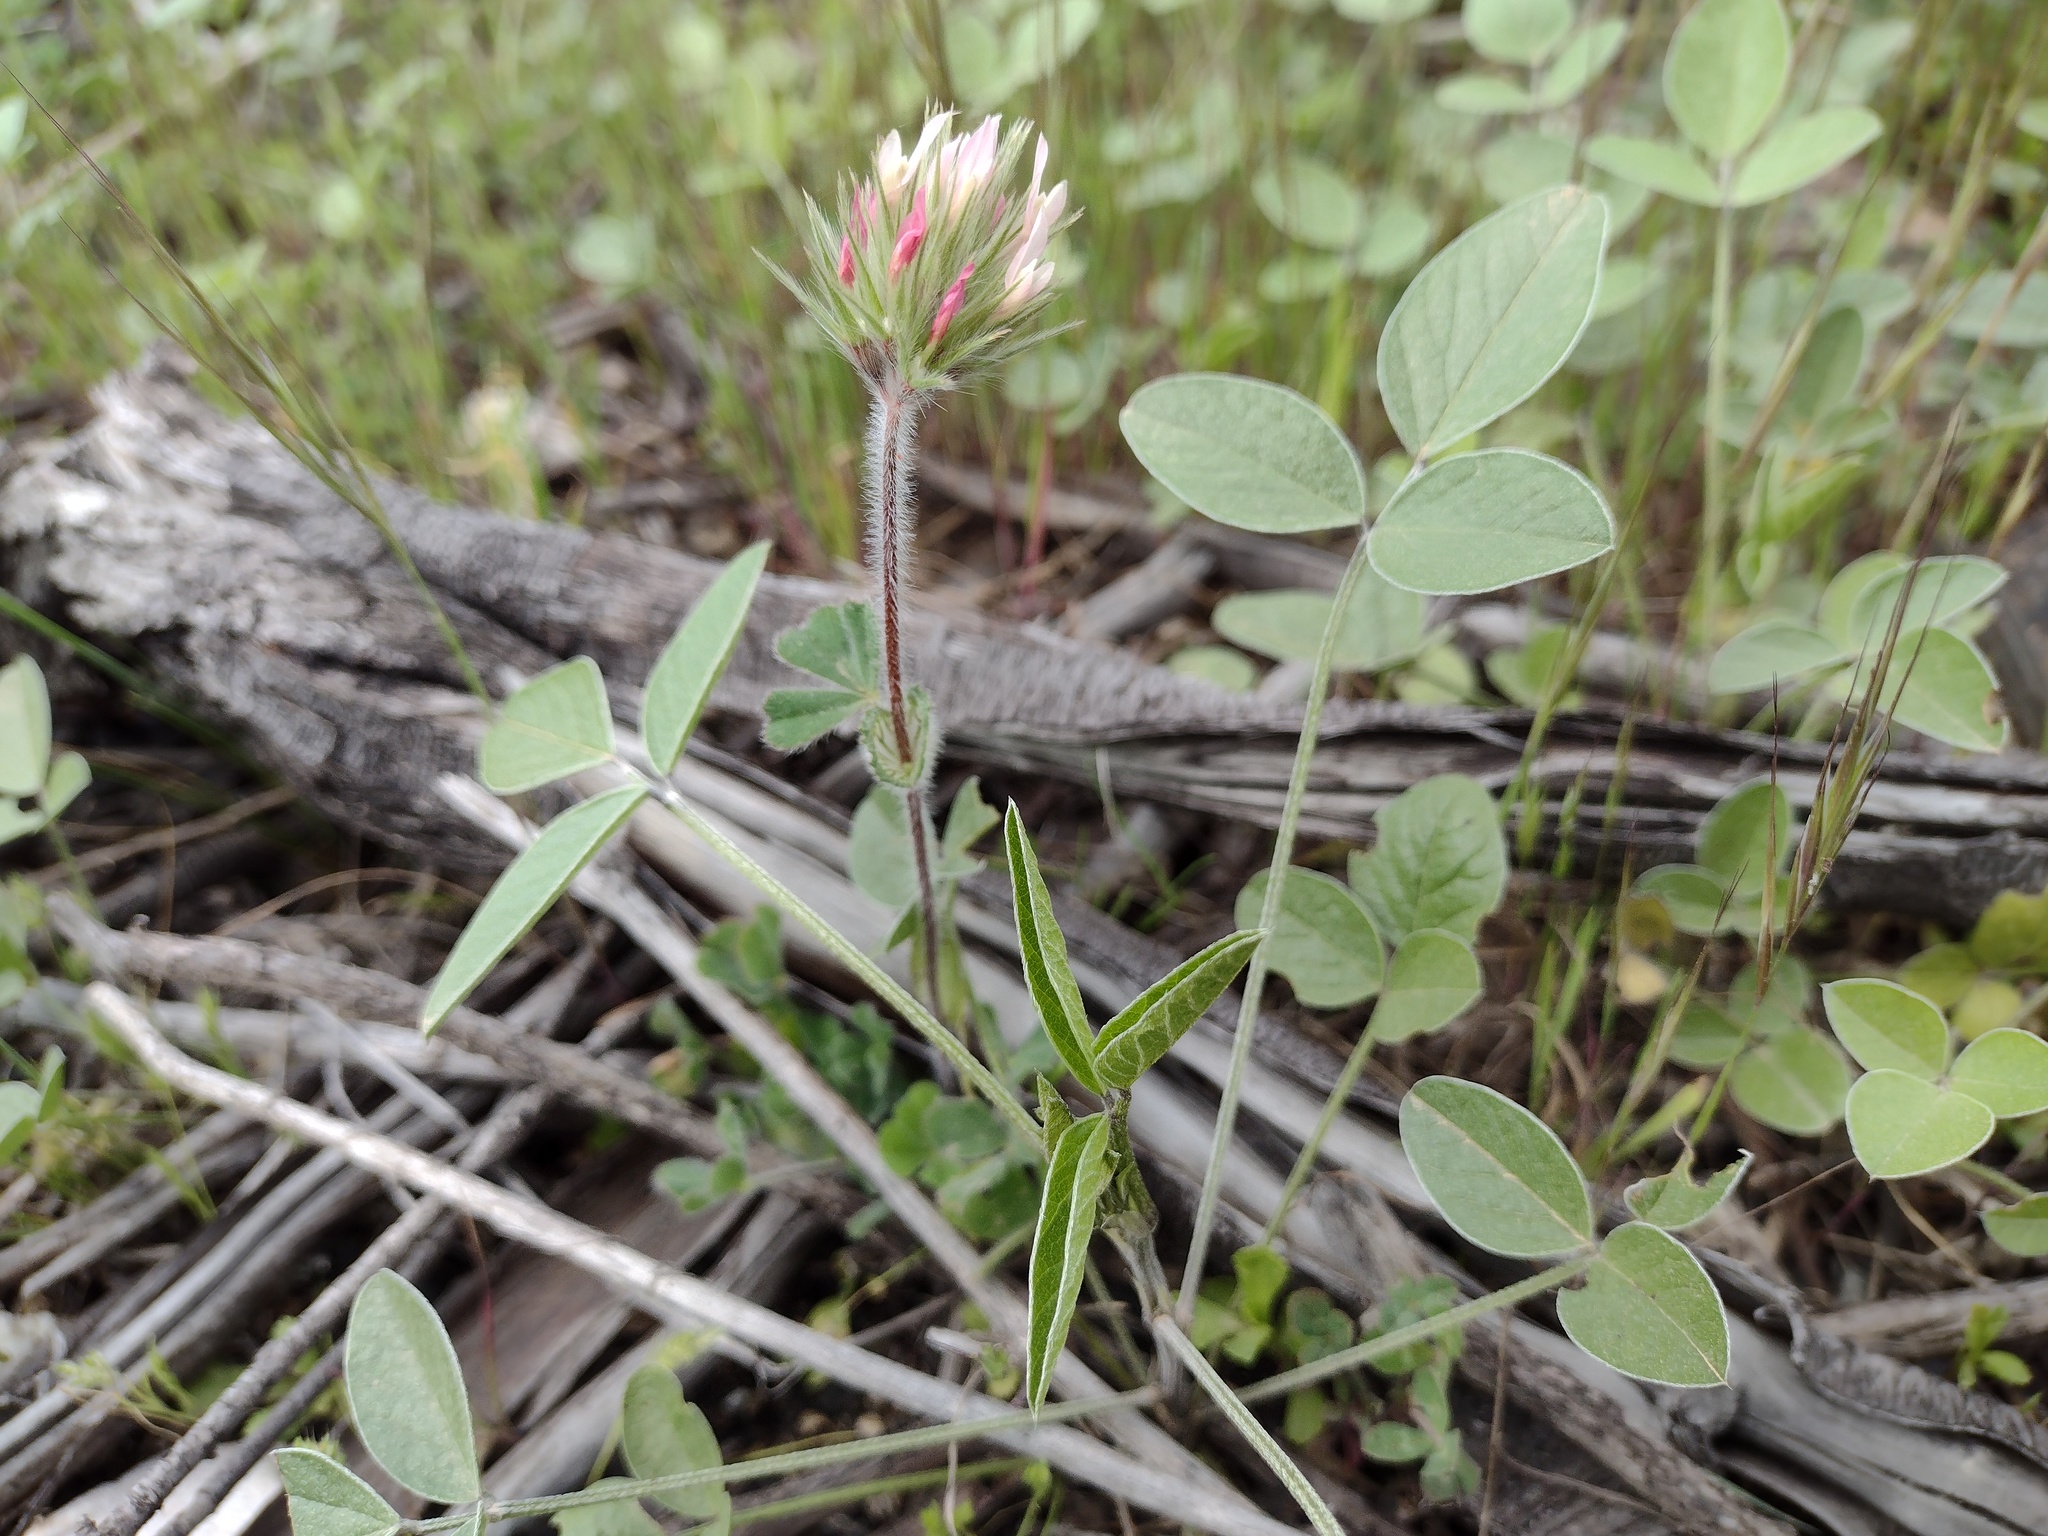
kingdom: Plantae
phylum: Tracheophyta
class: Magnoliopsida
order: Fabales
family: Fabaceae
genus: Trifolium
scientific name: Trifolium stellatum
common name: Starry clover
